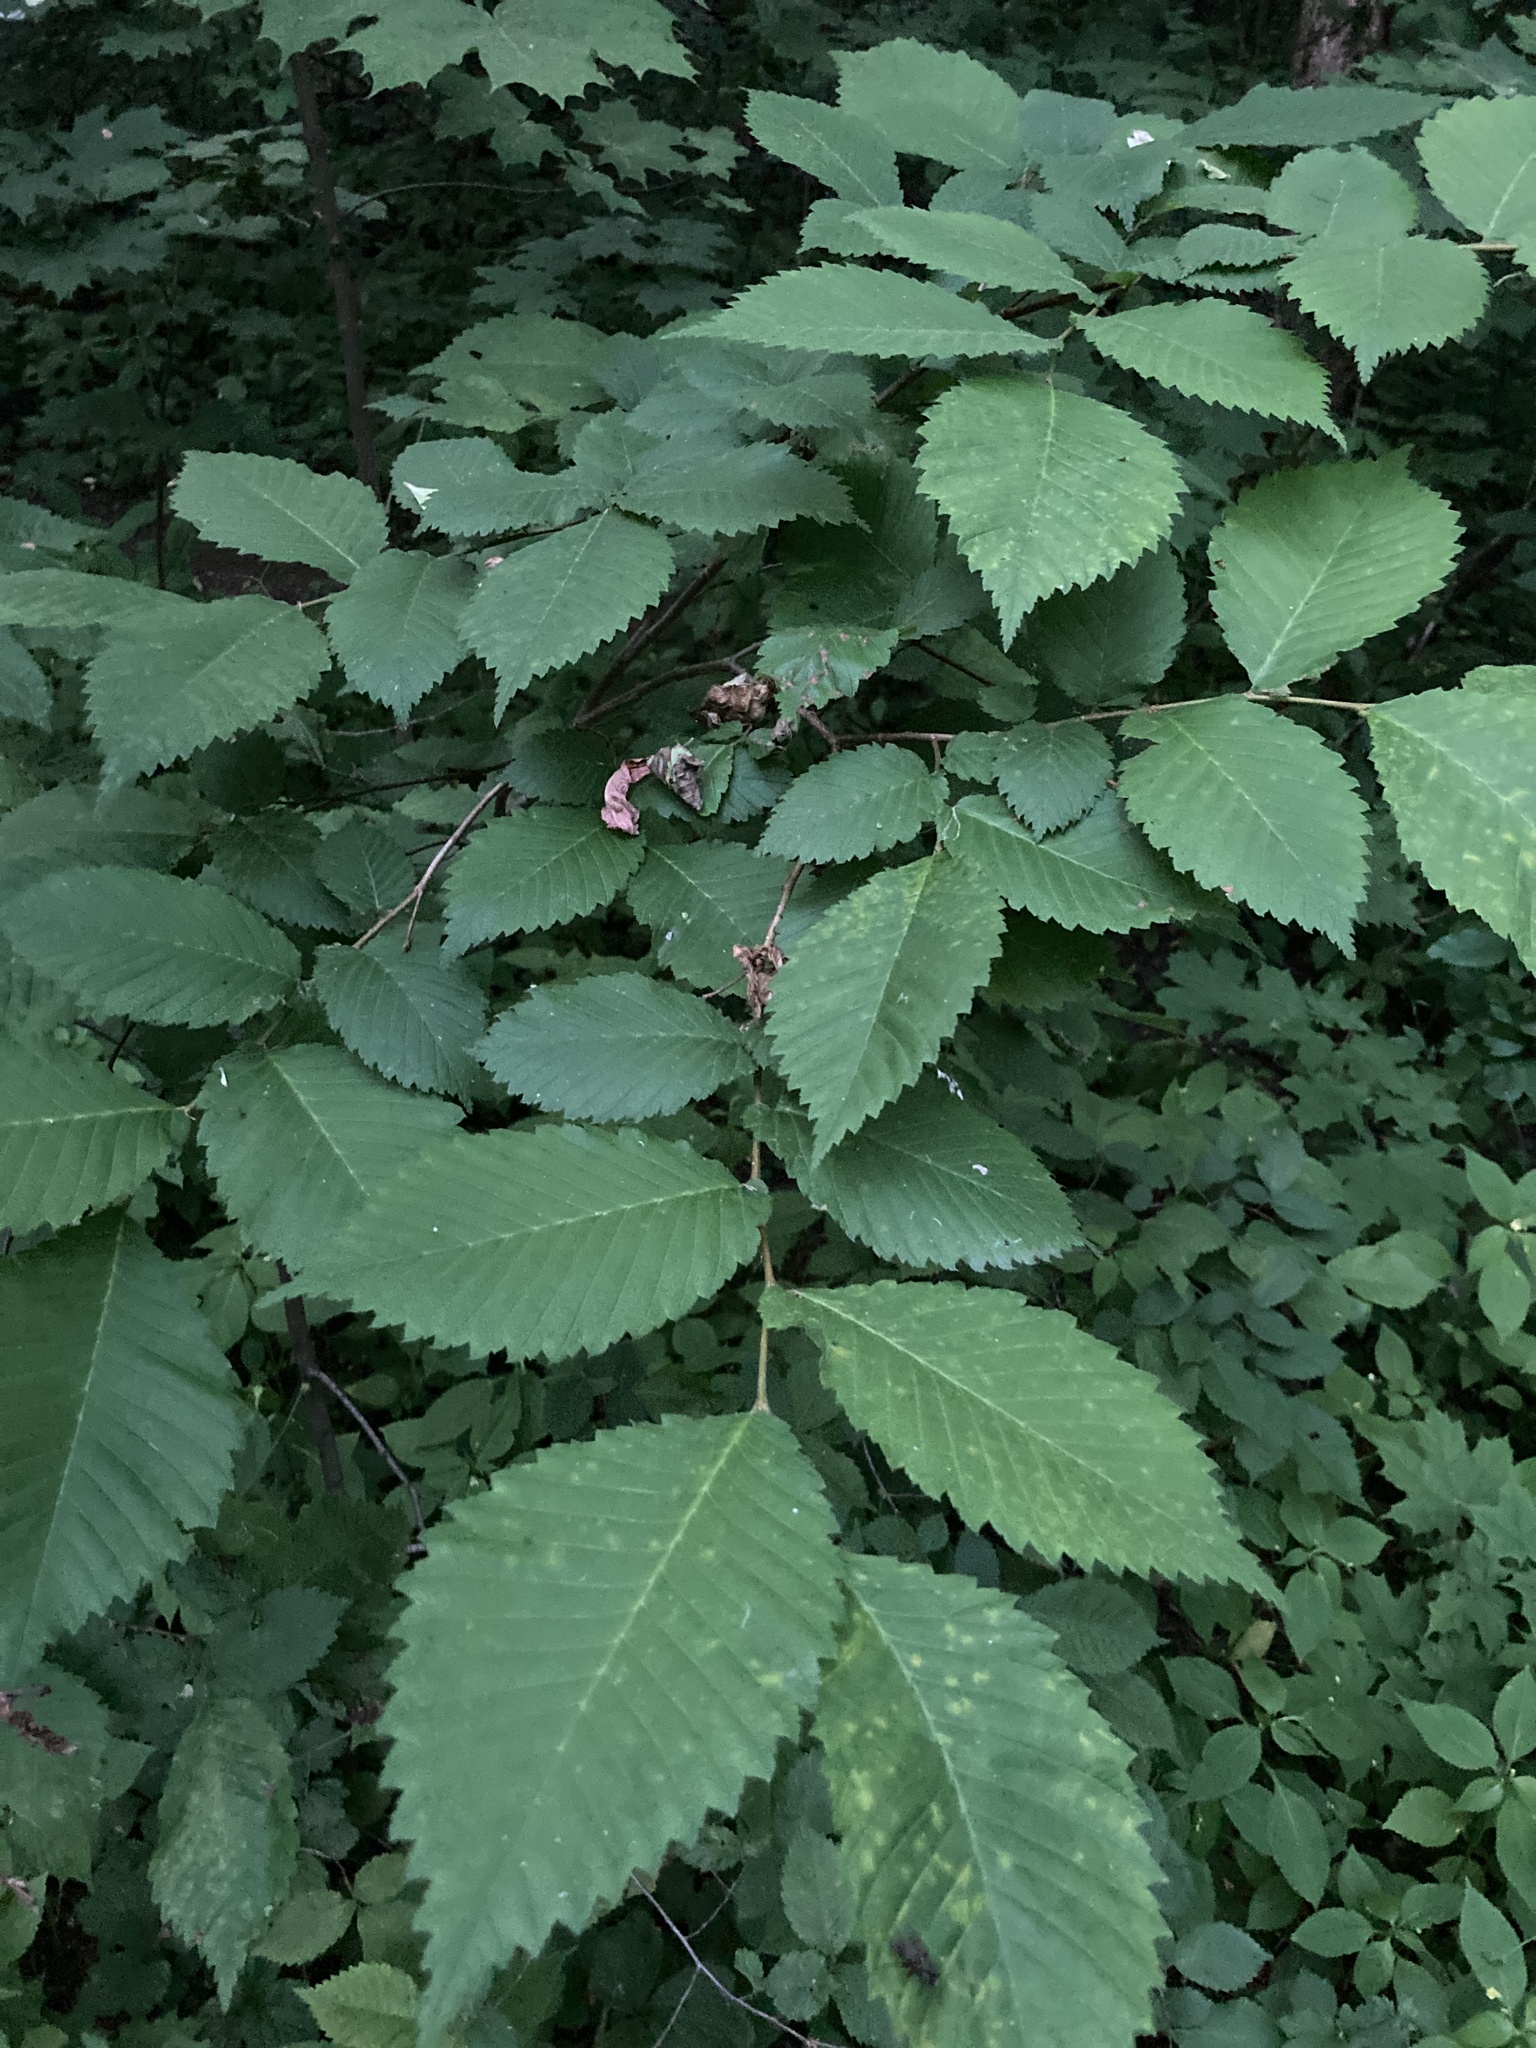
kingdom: Plantae
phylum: Tracheophyta
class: Magnoliopsida
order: Rosales
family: Ulmaceae
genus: Ulmus
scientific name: Ulmus laevis
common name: European white-elm
